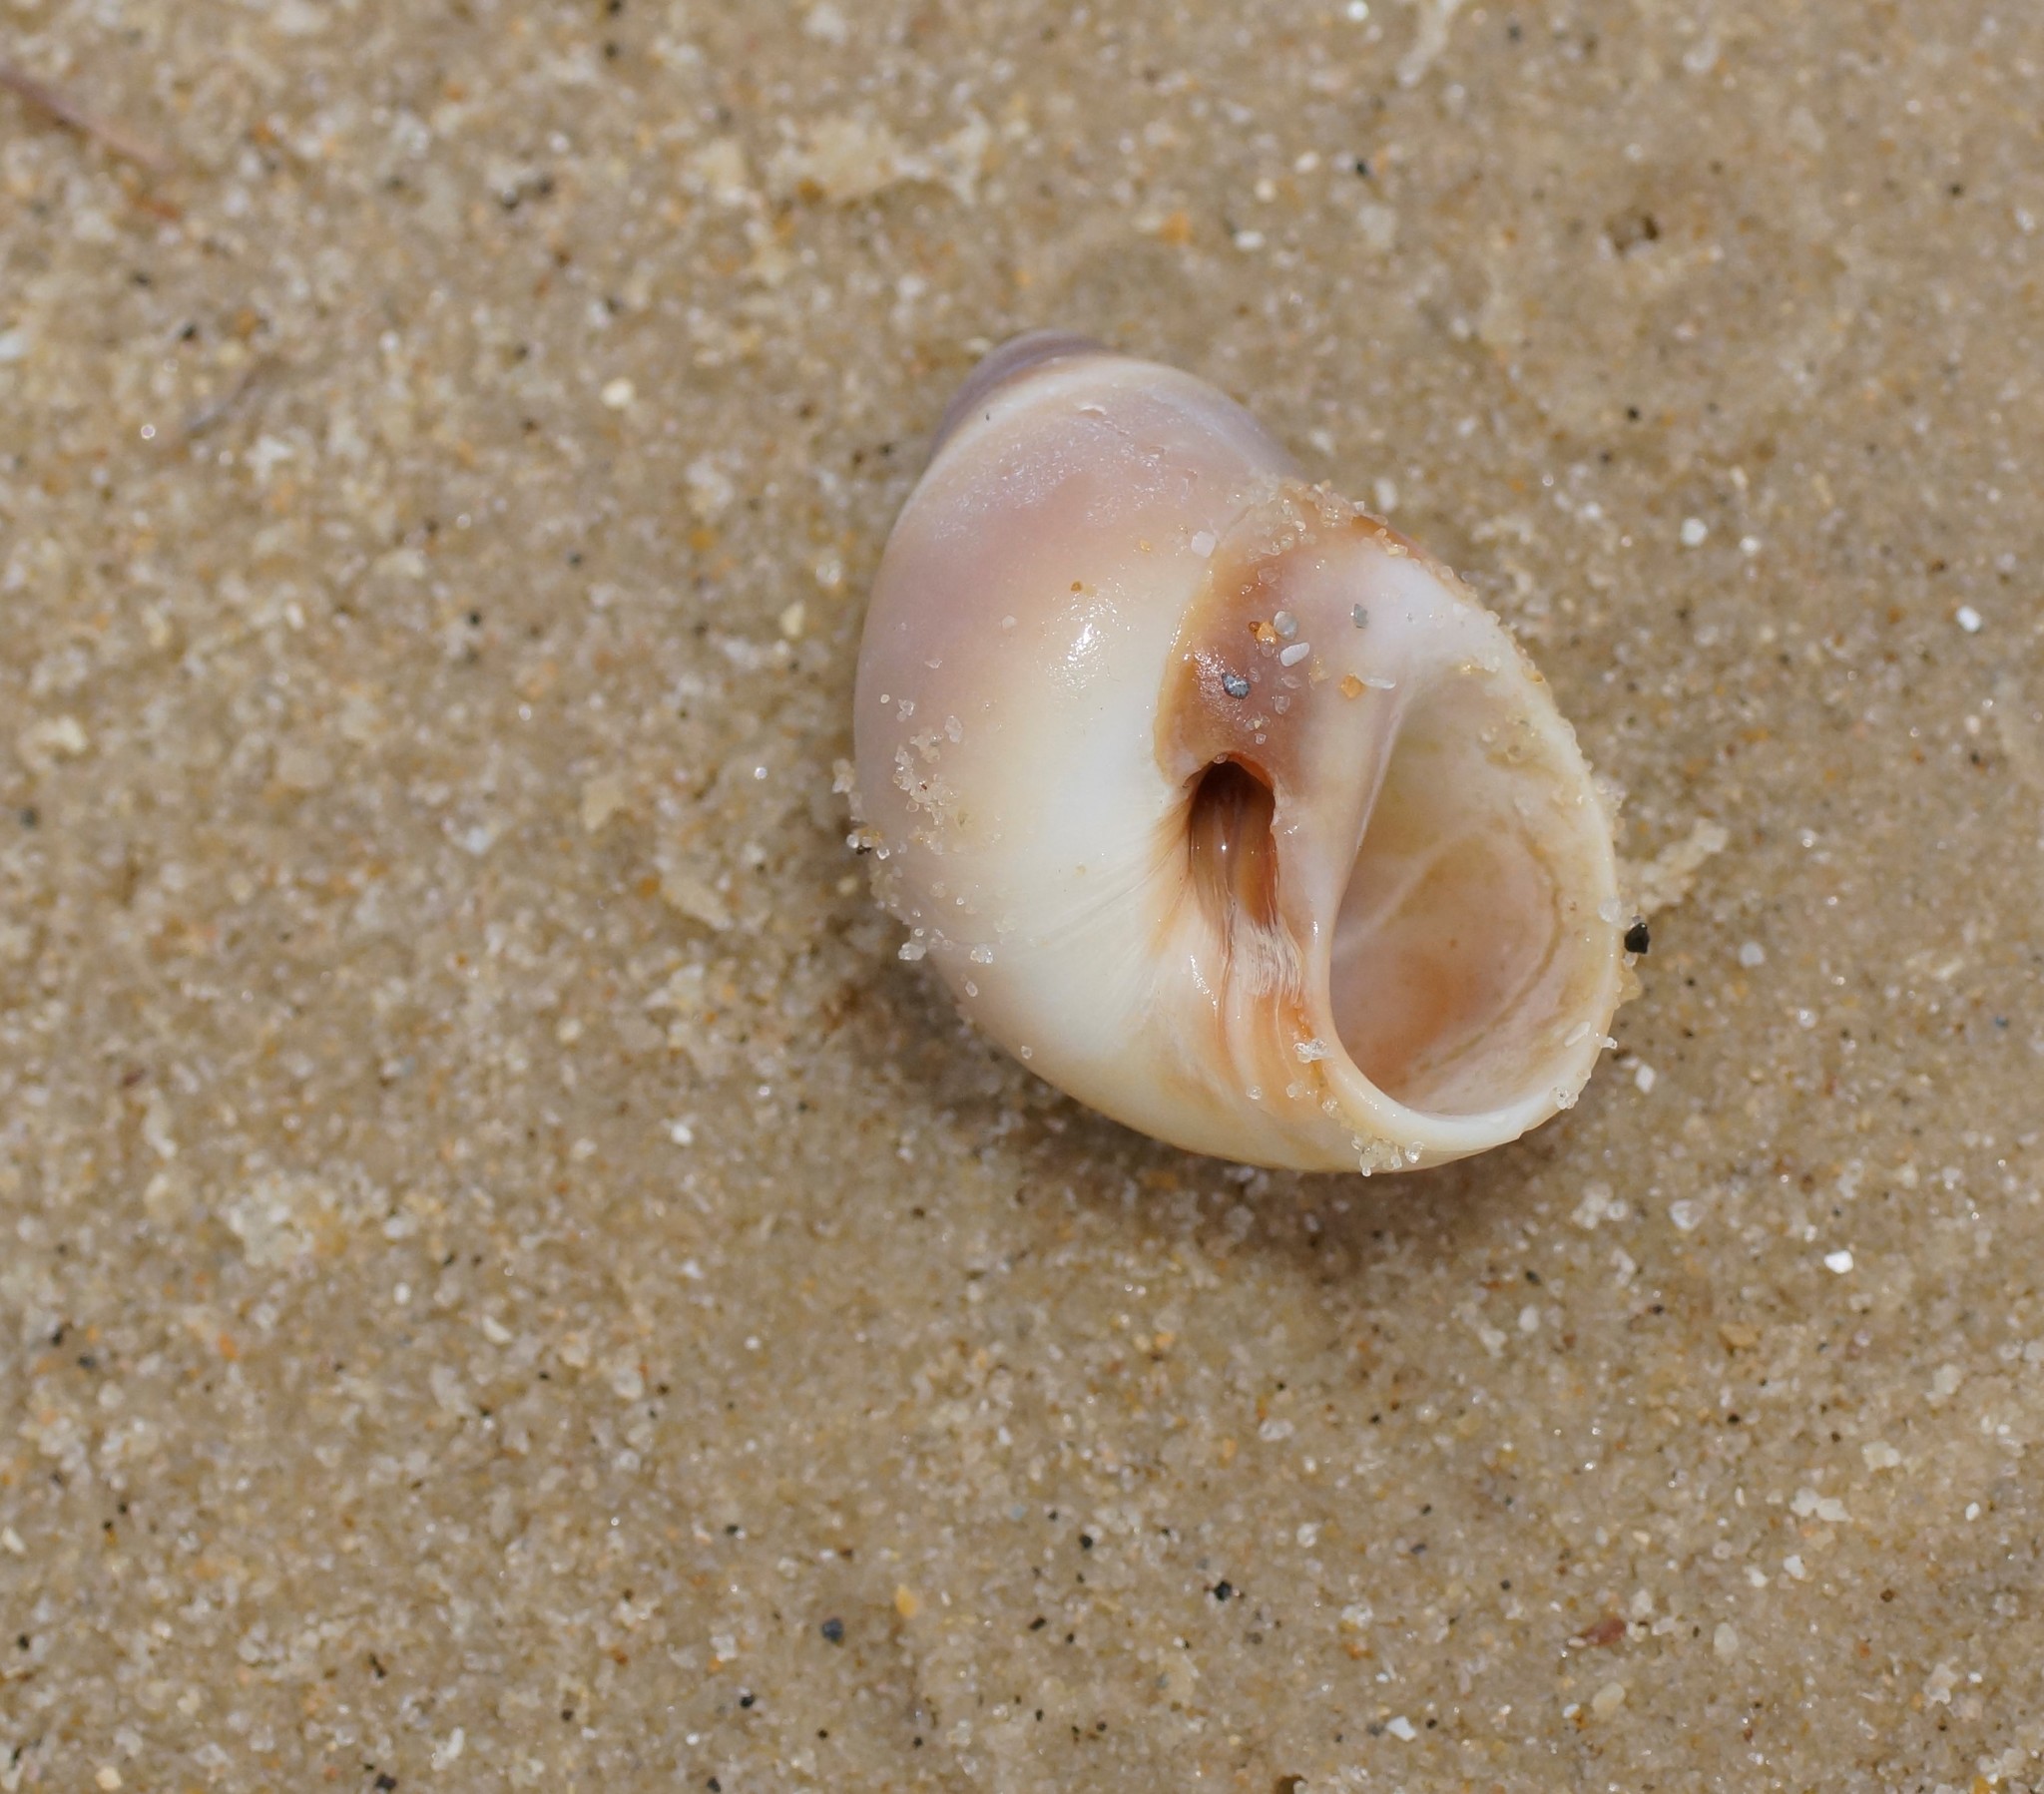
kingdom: Animalia
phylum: Mollusca
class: Gastropoda
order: Littorinimorpha
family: Naticidae
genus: Conuber
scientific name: Conuber conicum
